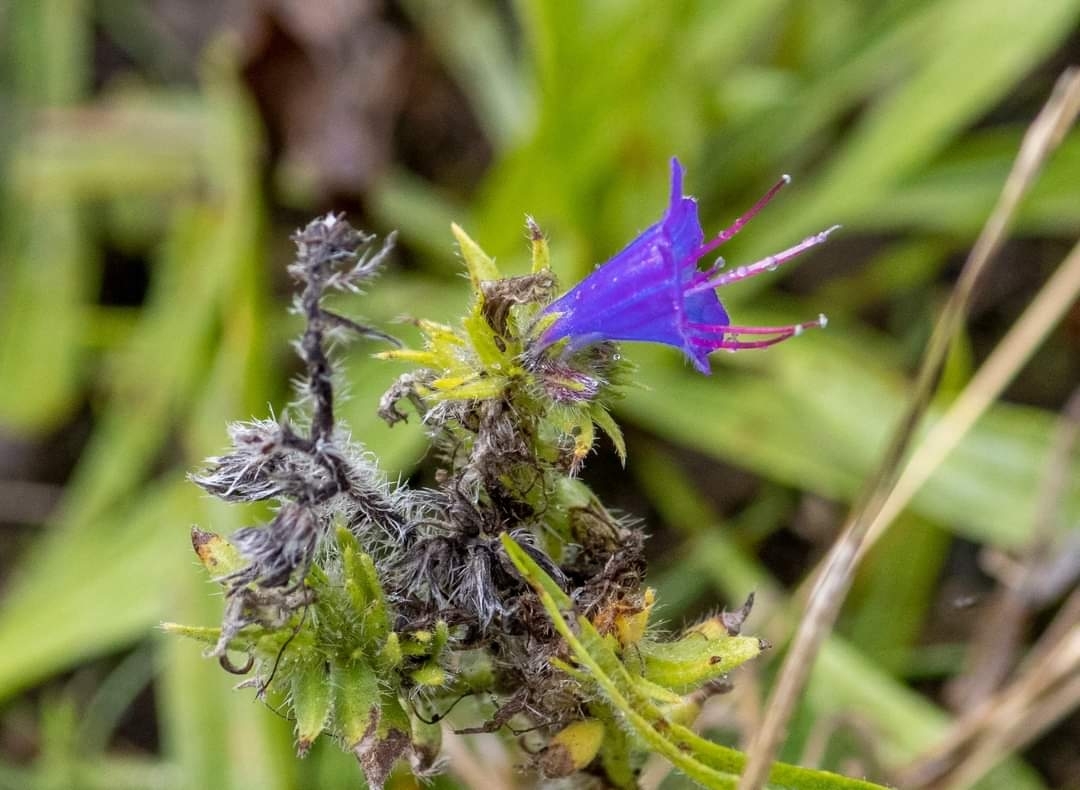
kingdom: Plantae
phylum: Tracheophyta
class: Magnoliopsida
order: Boraginales
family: Boraginaceae
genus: Echium
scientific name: Echium vulgare
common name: Common viper's bugloss
